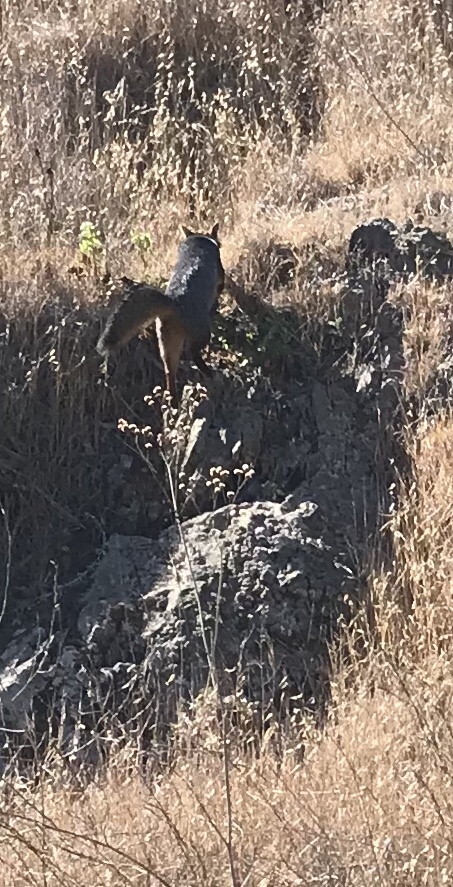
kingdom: Animalia
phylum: Chordata
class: Mammalia
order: Carnivora
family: Canidae
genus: Urocyon
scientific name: Urocyon littoralis
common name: Island gray fox
